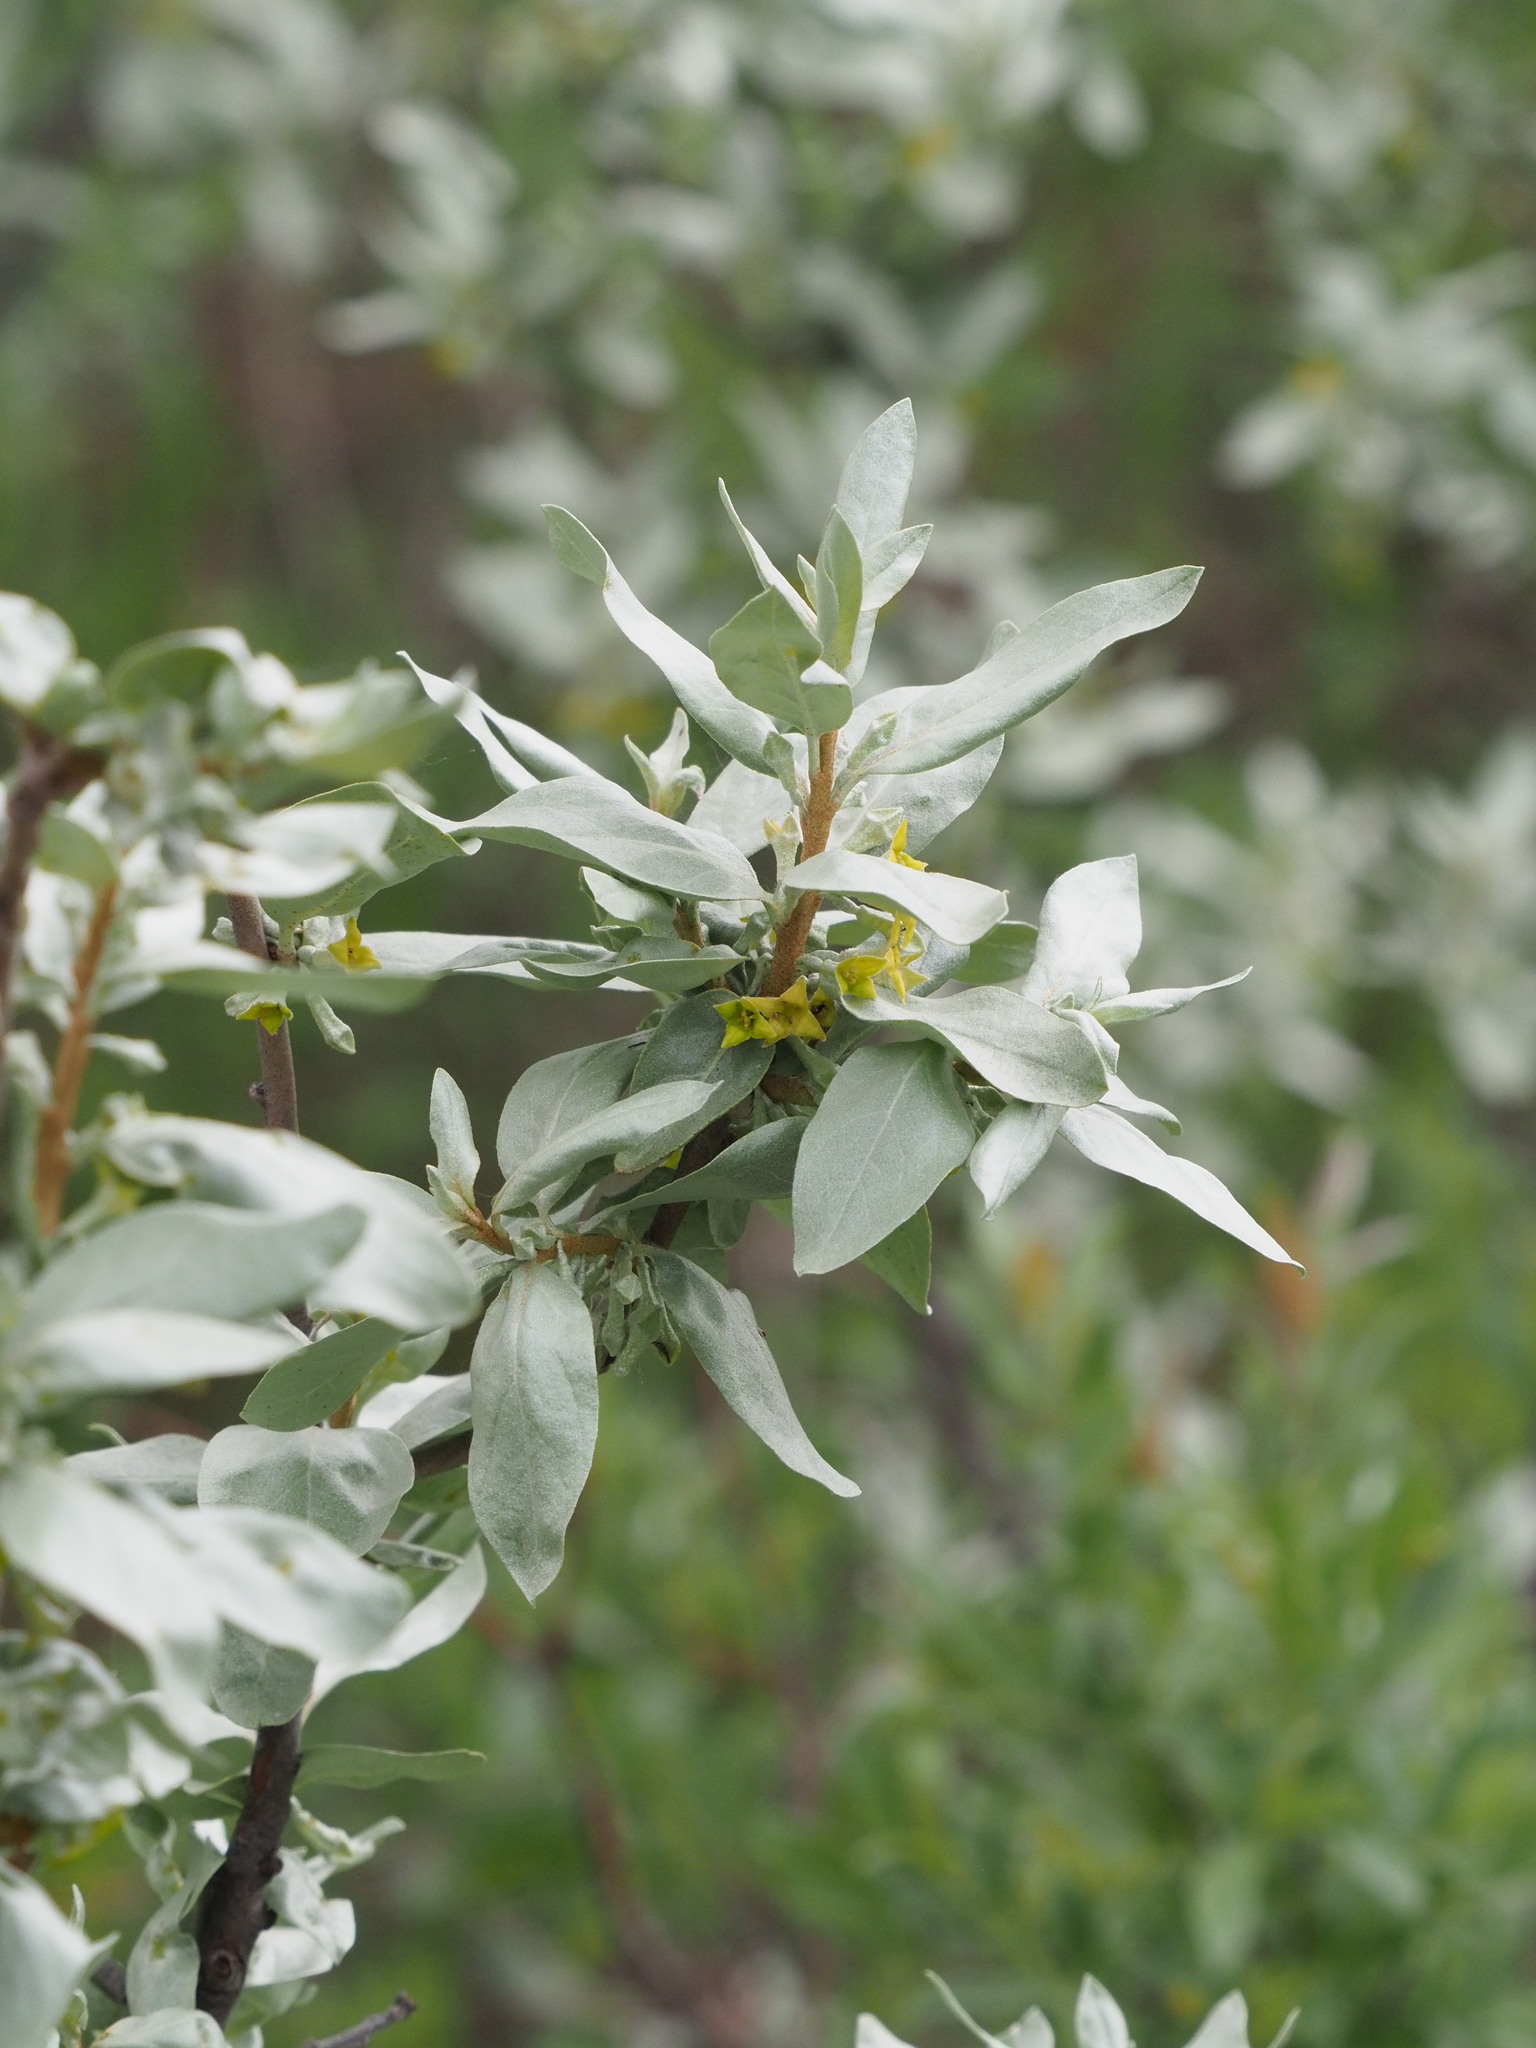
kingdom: Plantae
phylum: Tracheophyta
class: Magnoliopsida
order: Rosales
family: Elaeagnaceae
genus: Elaeagnus
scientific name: Elaeagnus commutata
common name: Silverberry
